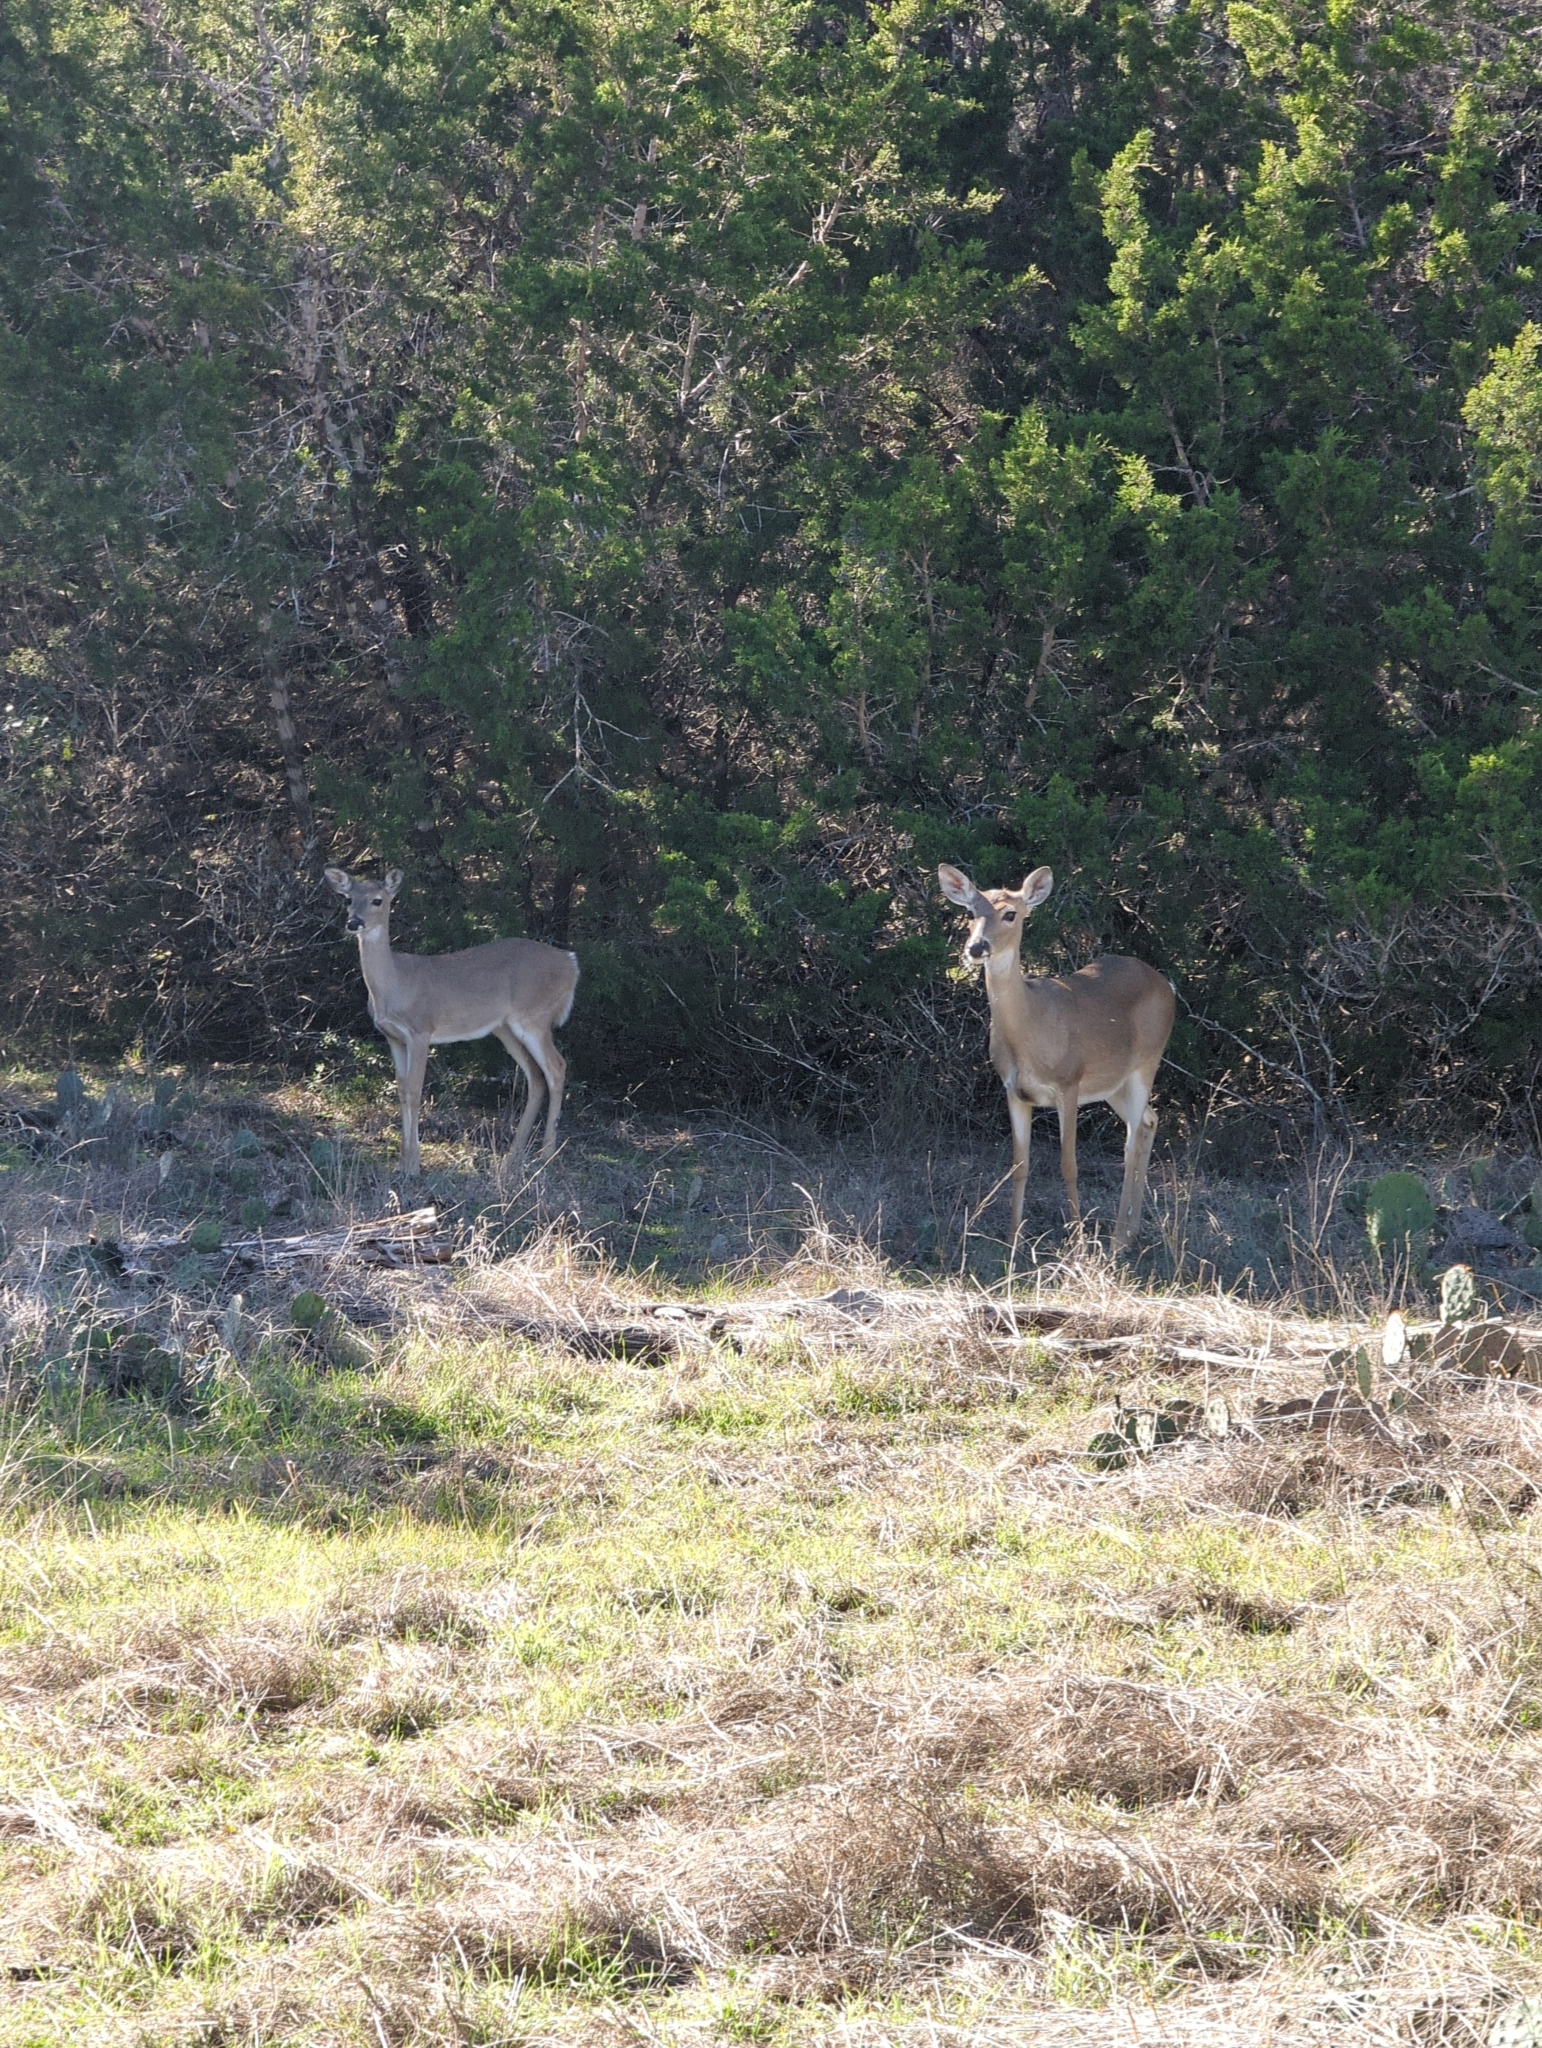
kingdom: Animalia
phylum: Chordata
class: Mammalia
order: Artiodactyla
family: Cervidae
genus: Odocoileus
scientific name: Odocoileus virginianus
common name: White-tailed deer
